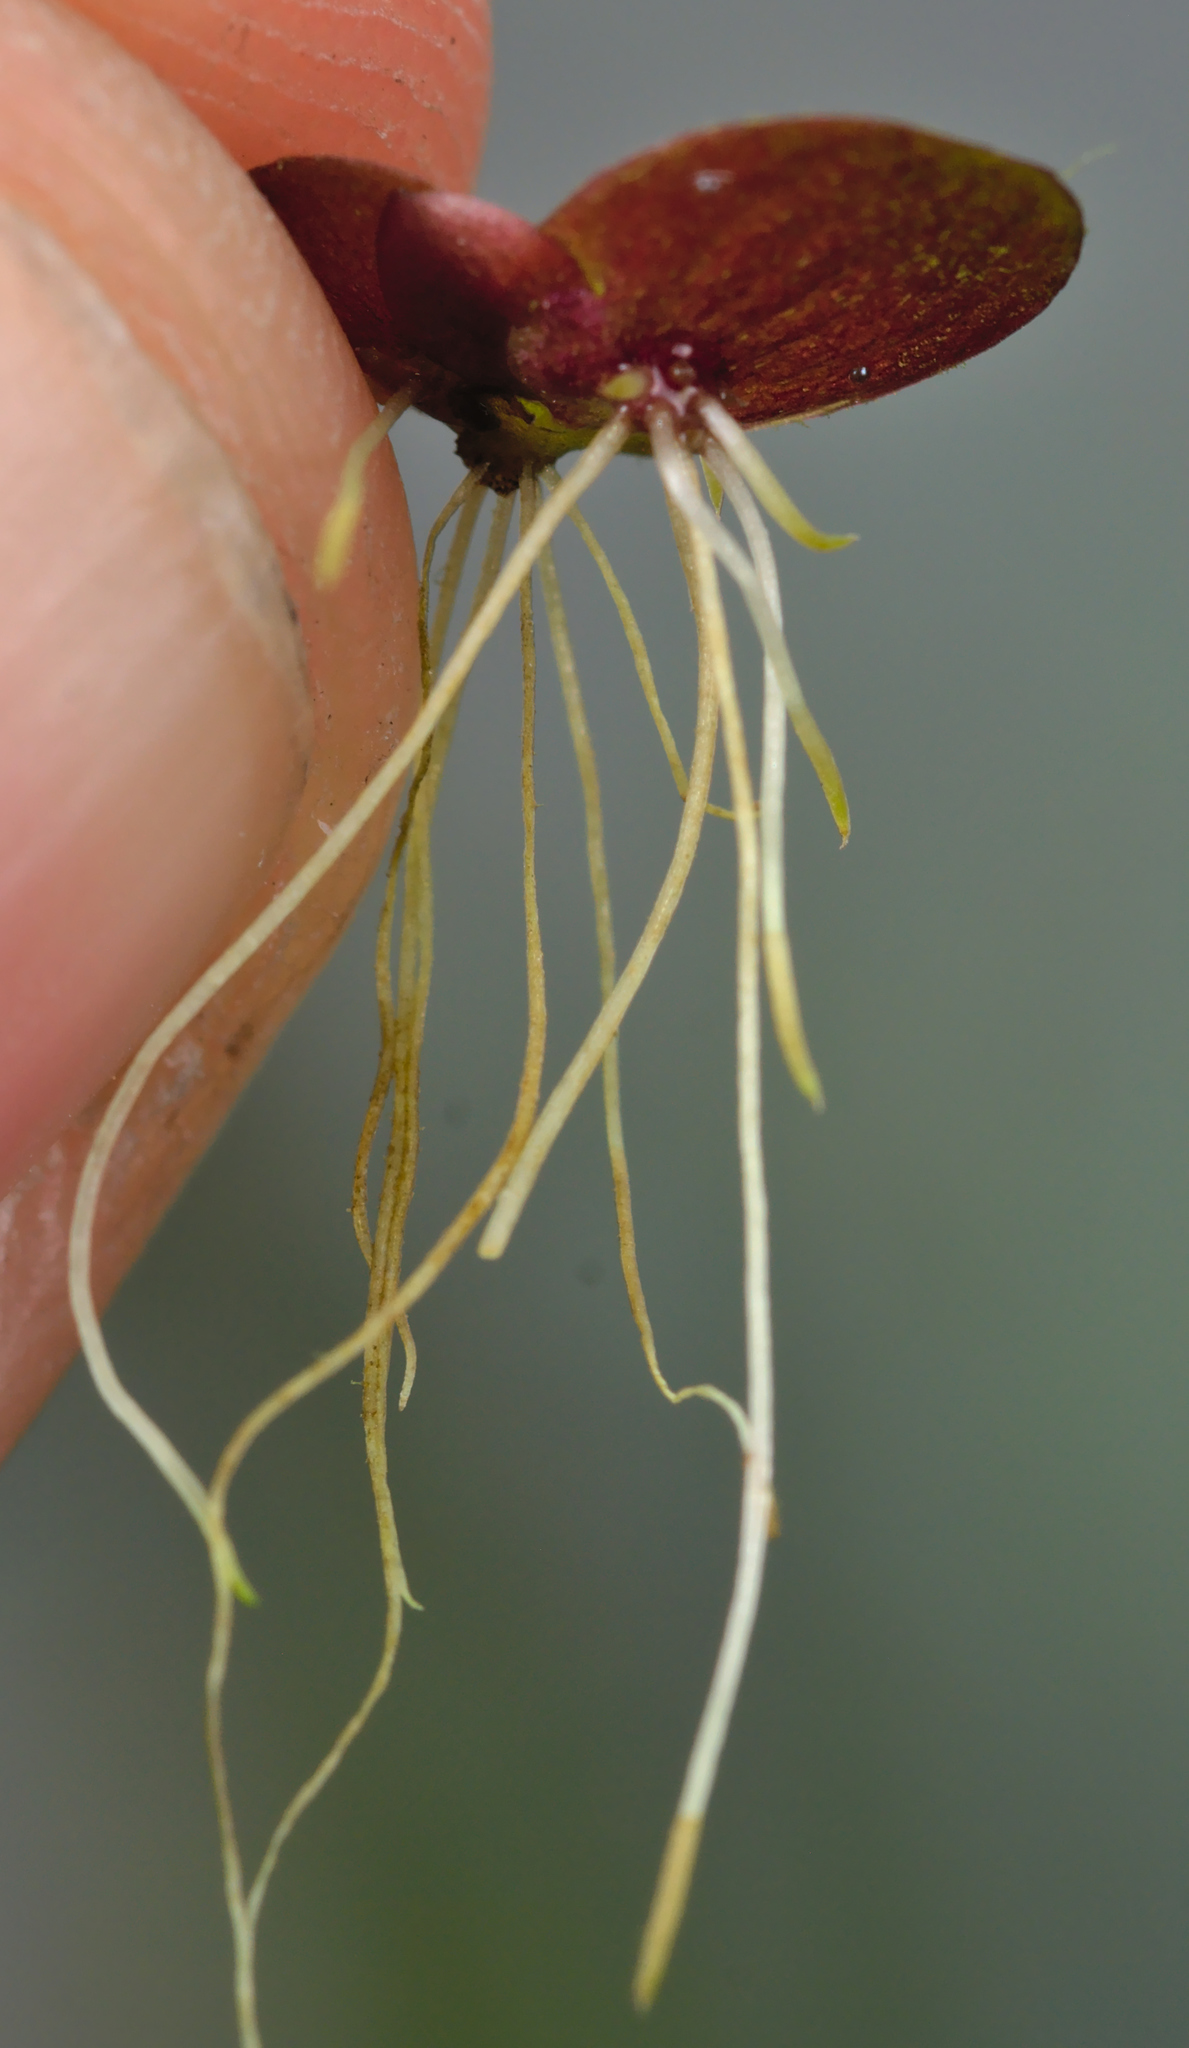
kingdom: Plantae
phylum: Tracheophyta
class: Liliopsida
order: Alismatales
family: Araceae
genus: Spirodela
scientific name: Spirodela polyrhiza
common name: Great duckweed
